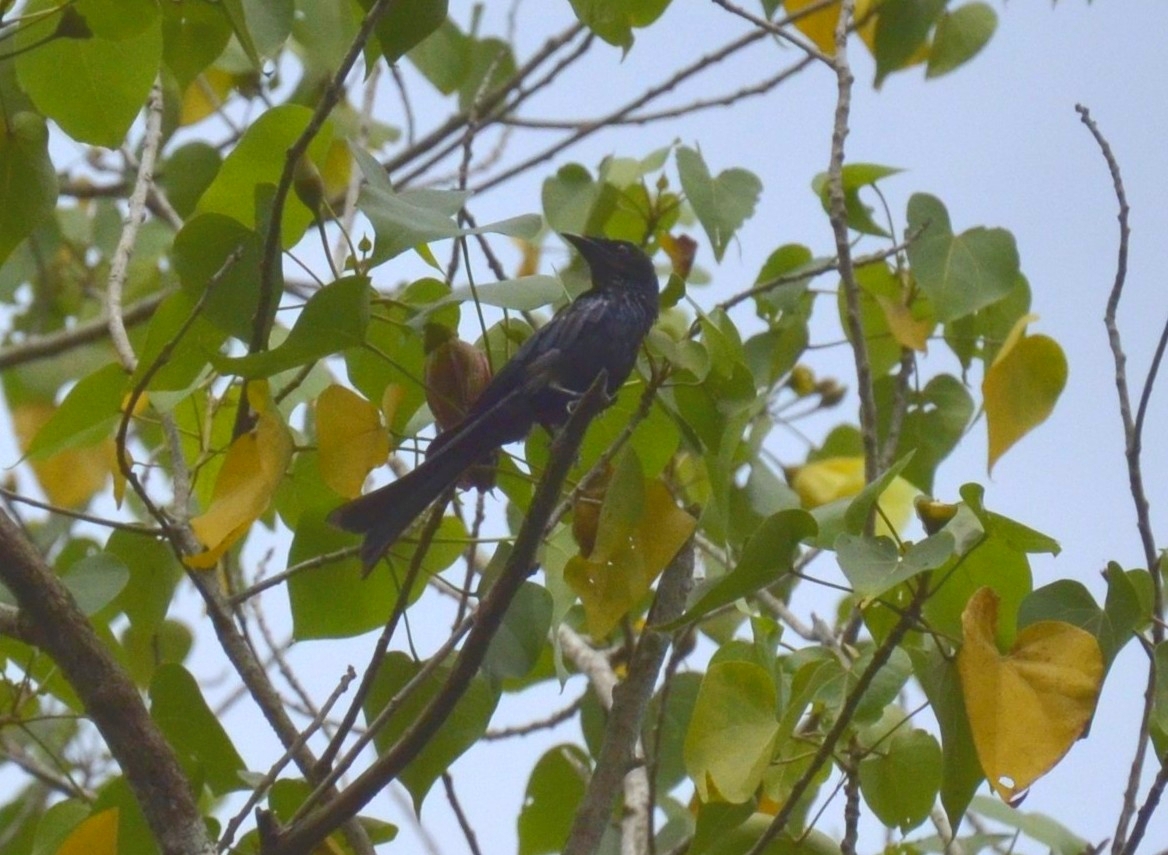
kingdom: Animalia
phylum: Chordata
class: Aves
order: Passeriformes
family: Dicruridae
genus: Dicrurus
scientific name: Dicrurus aeneus
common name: Bronzed drongo
